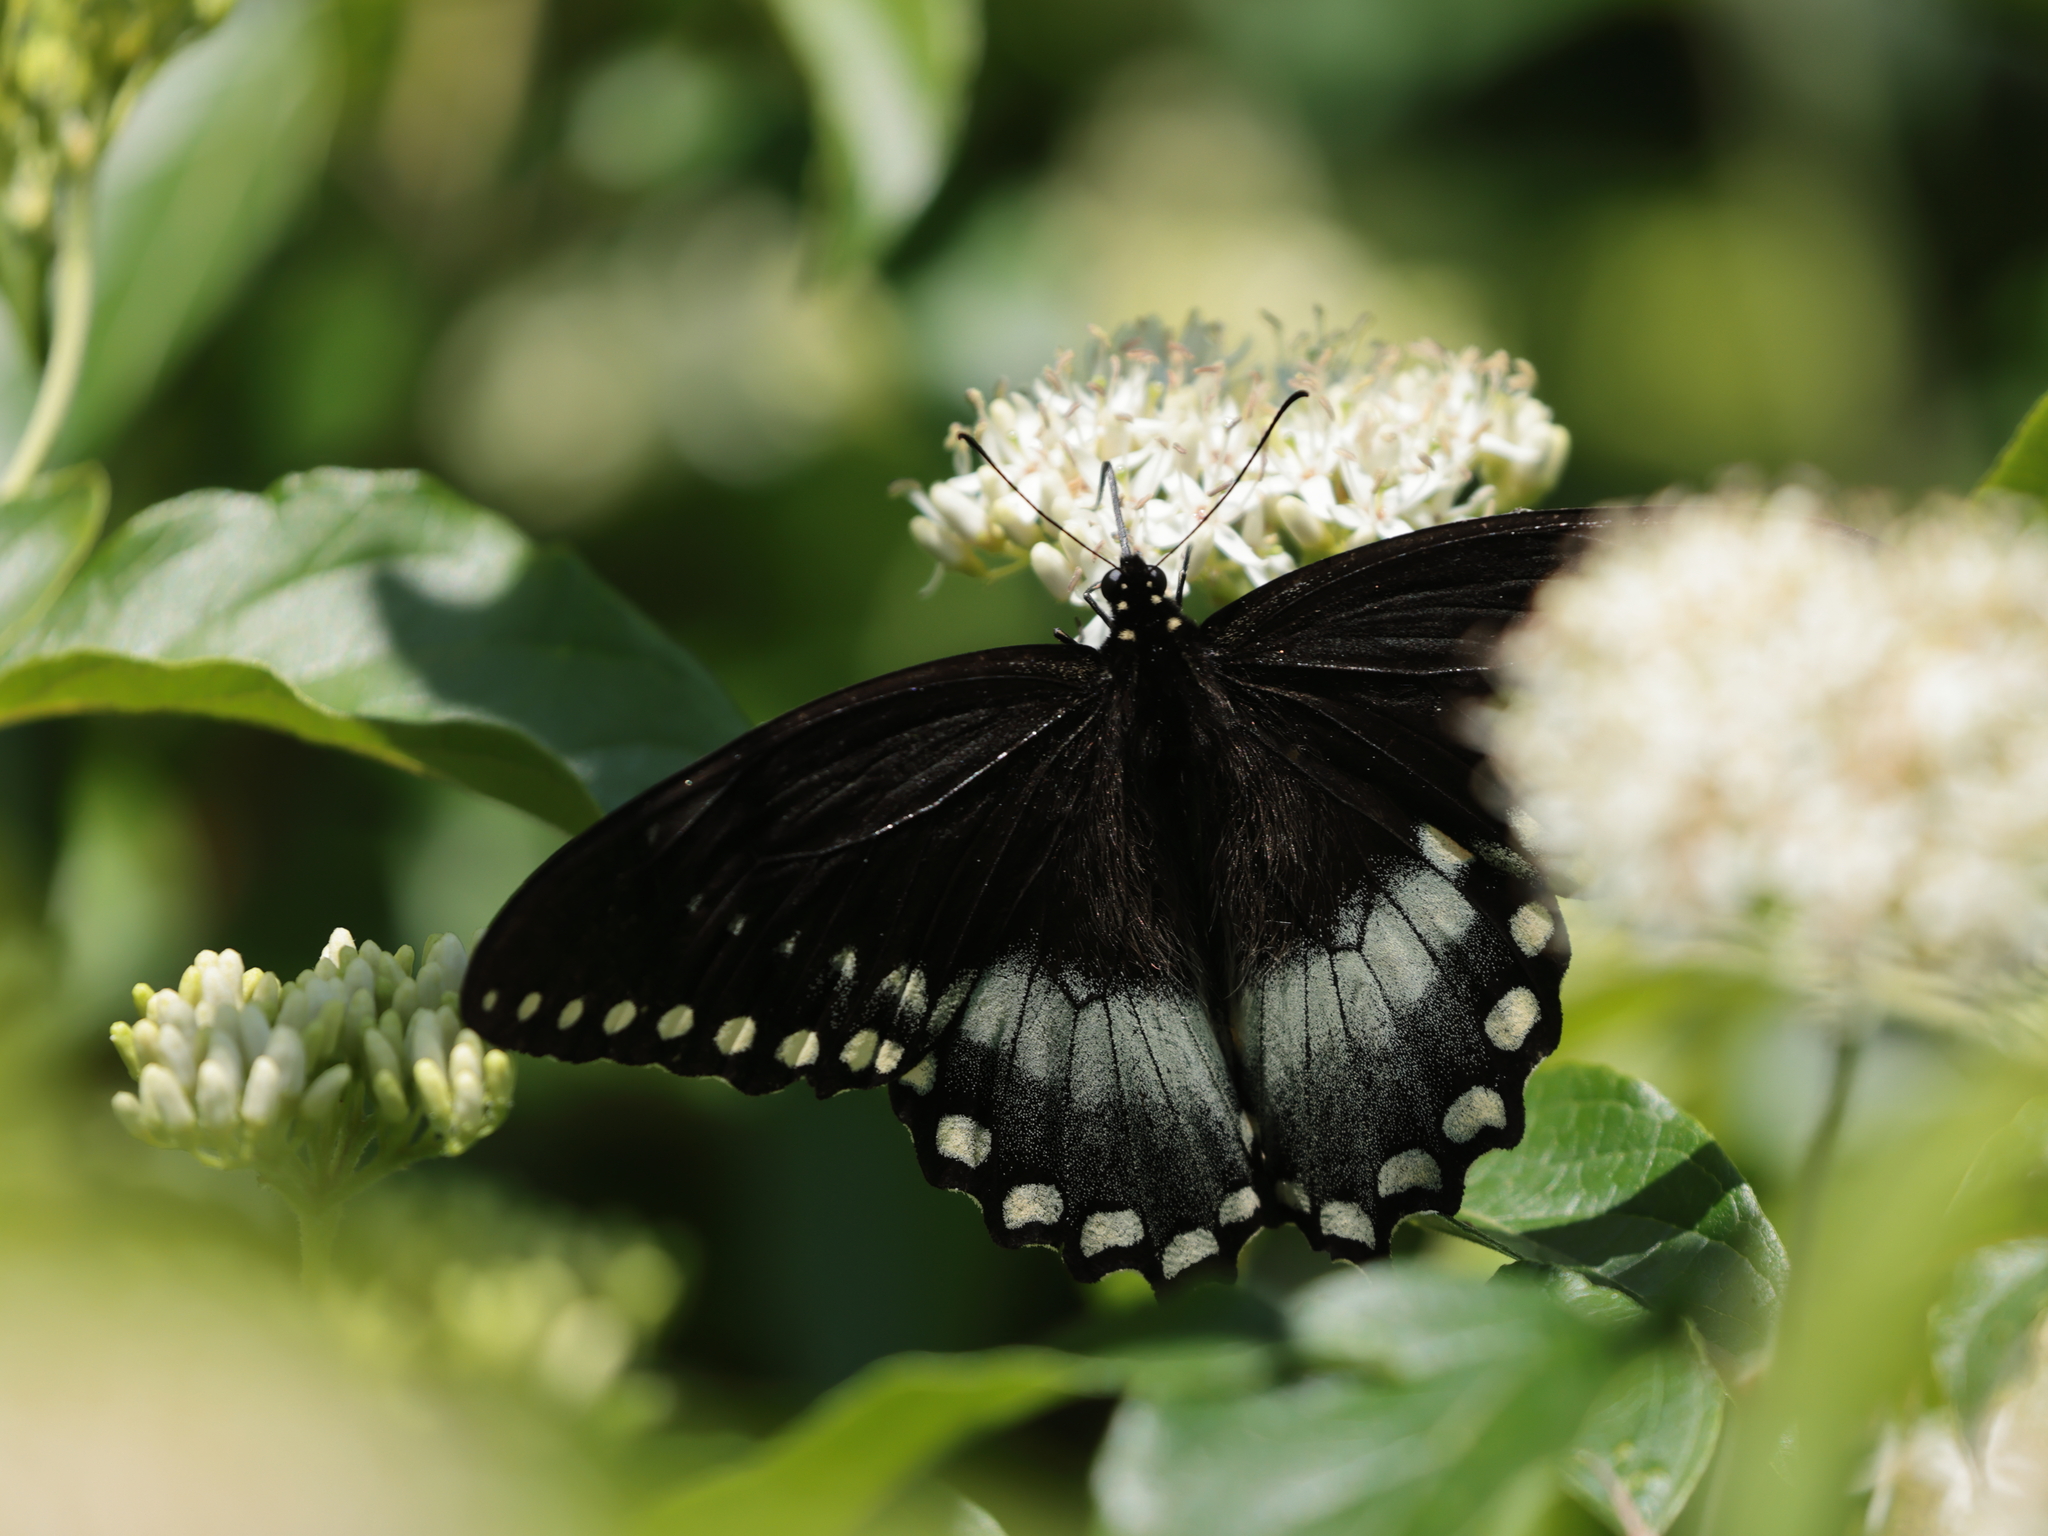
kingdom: Animalia
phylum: Arthropoda
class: Insecta
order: Lepidoptera
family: Papilionidae
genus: Papilio
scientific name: Papilio troilus
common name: Spicebush swallowtail
